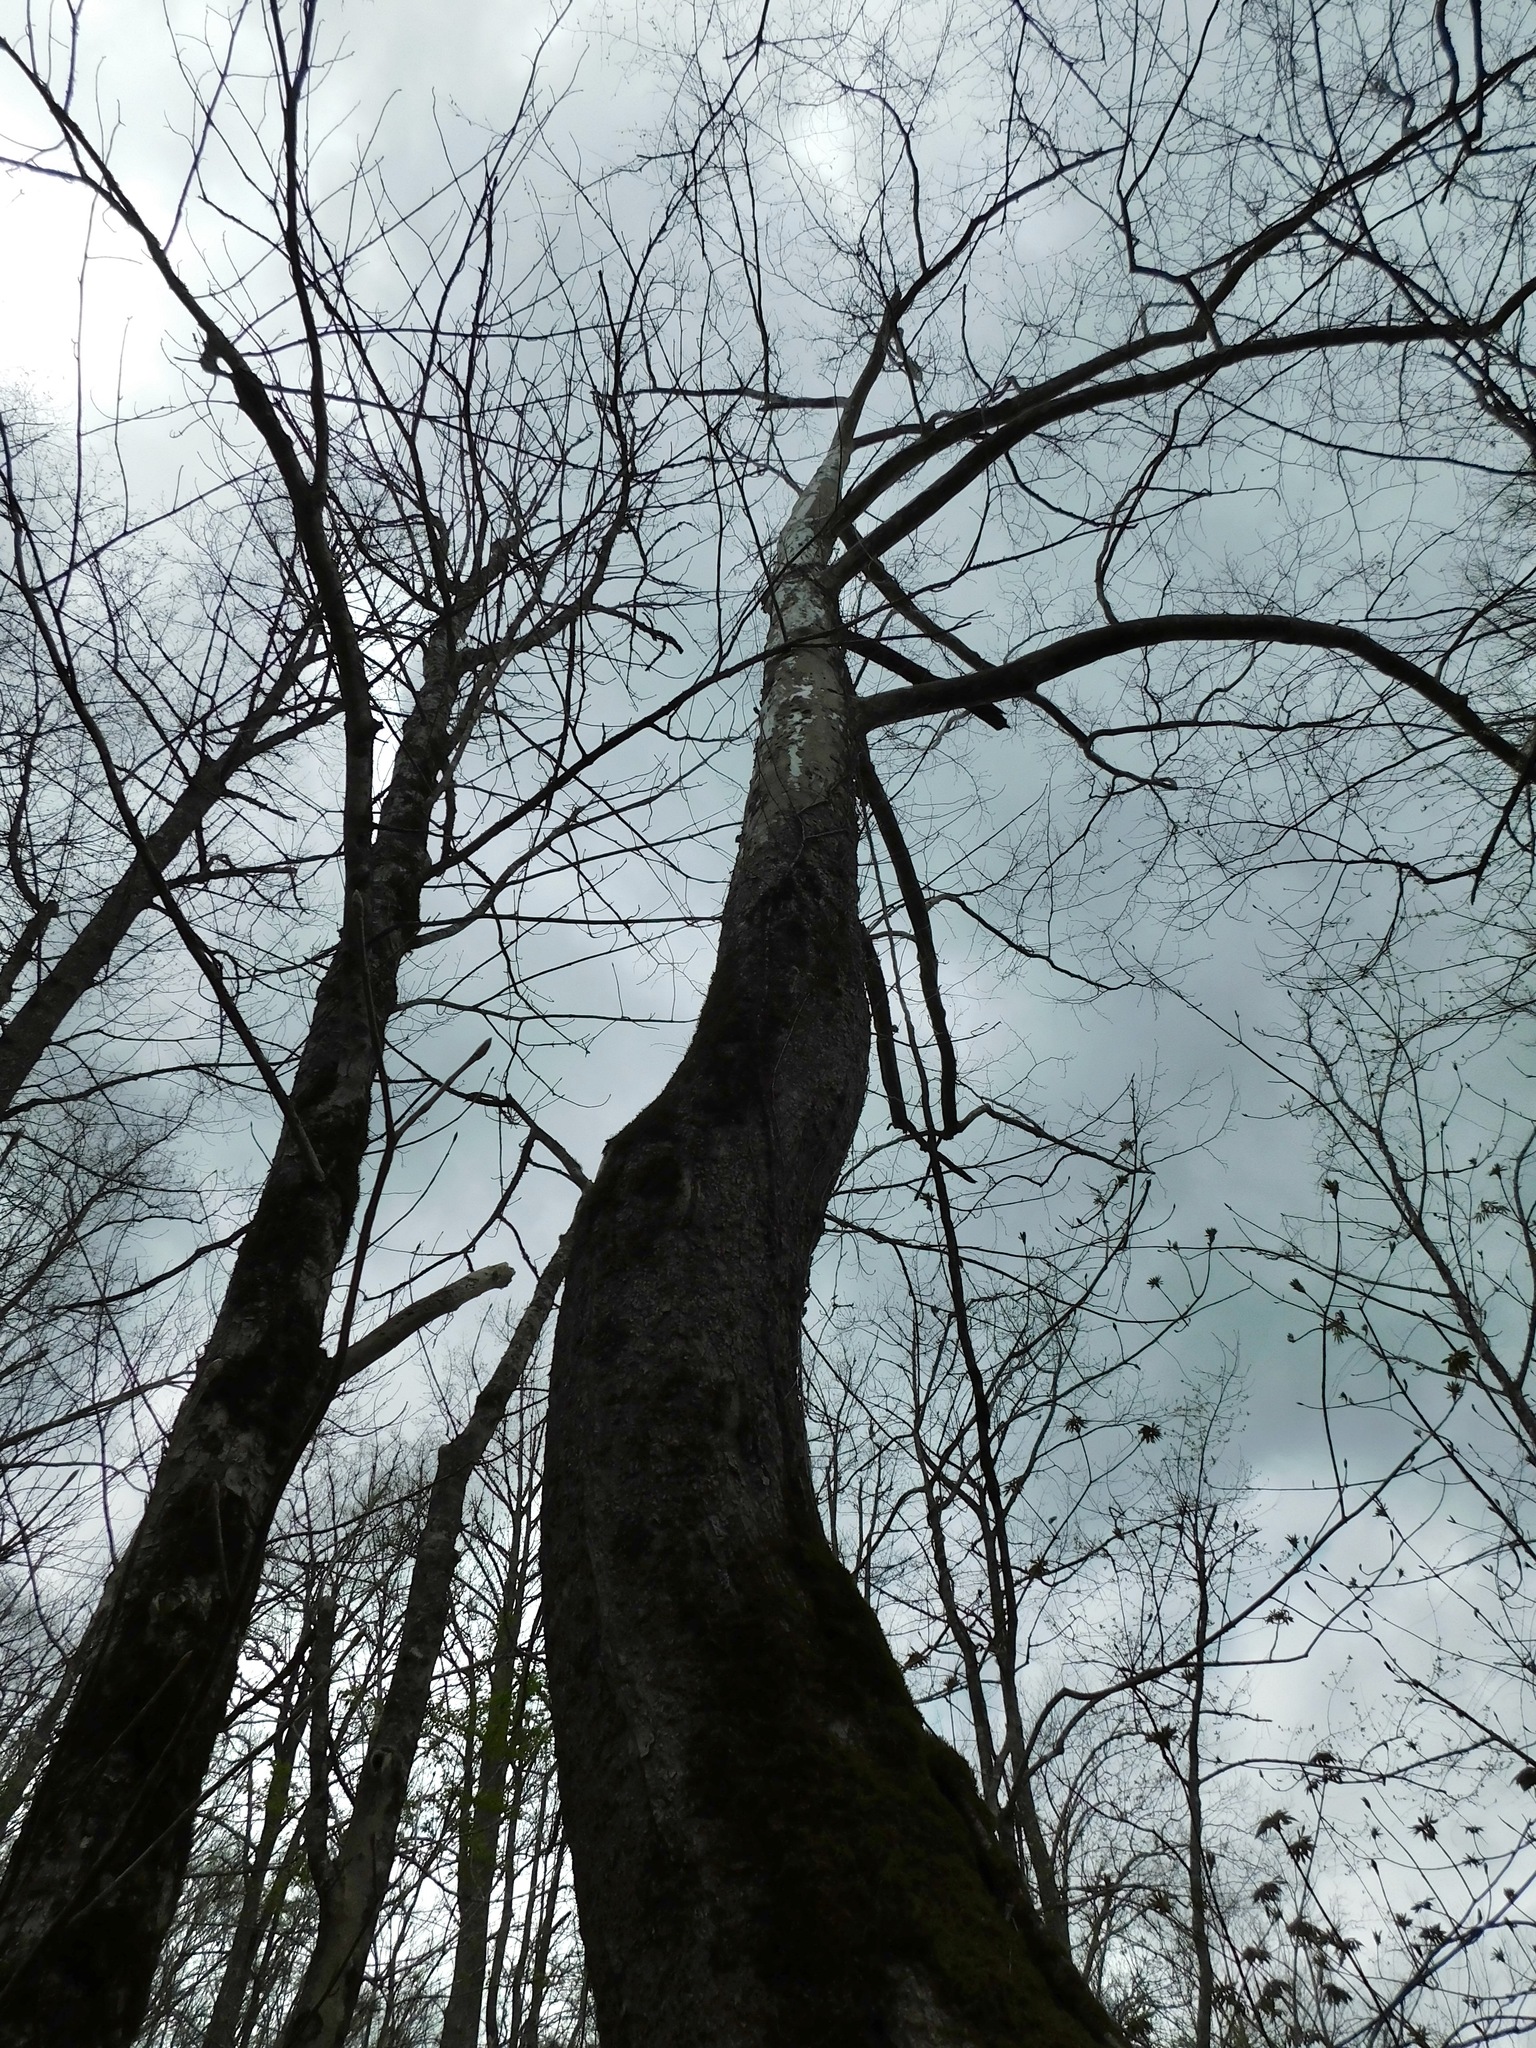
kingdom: Plantae
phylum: Tracheophyta
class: Magnoliopsida
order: Proteales
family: Platanaceae
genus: Platanus
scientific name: Platanus occidentalis
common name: American sycamore
